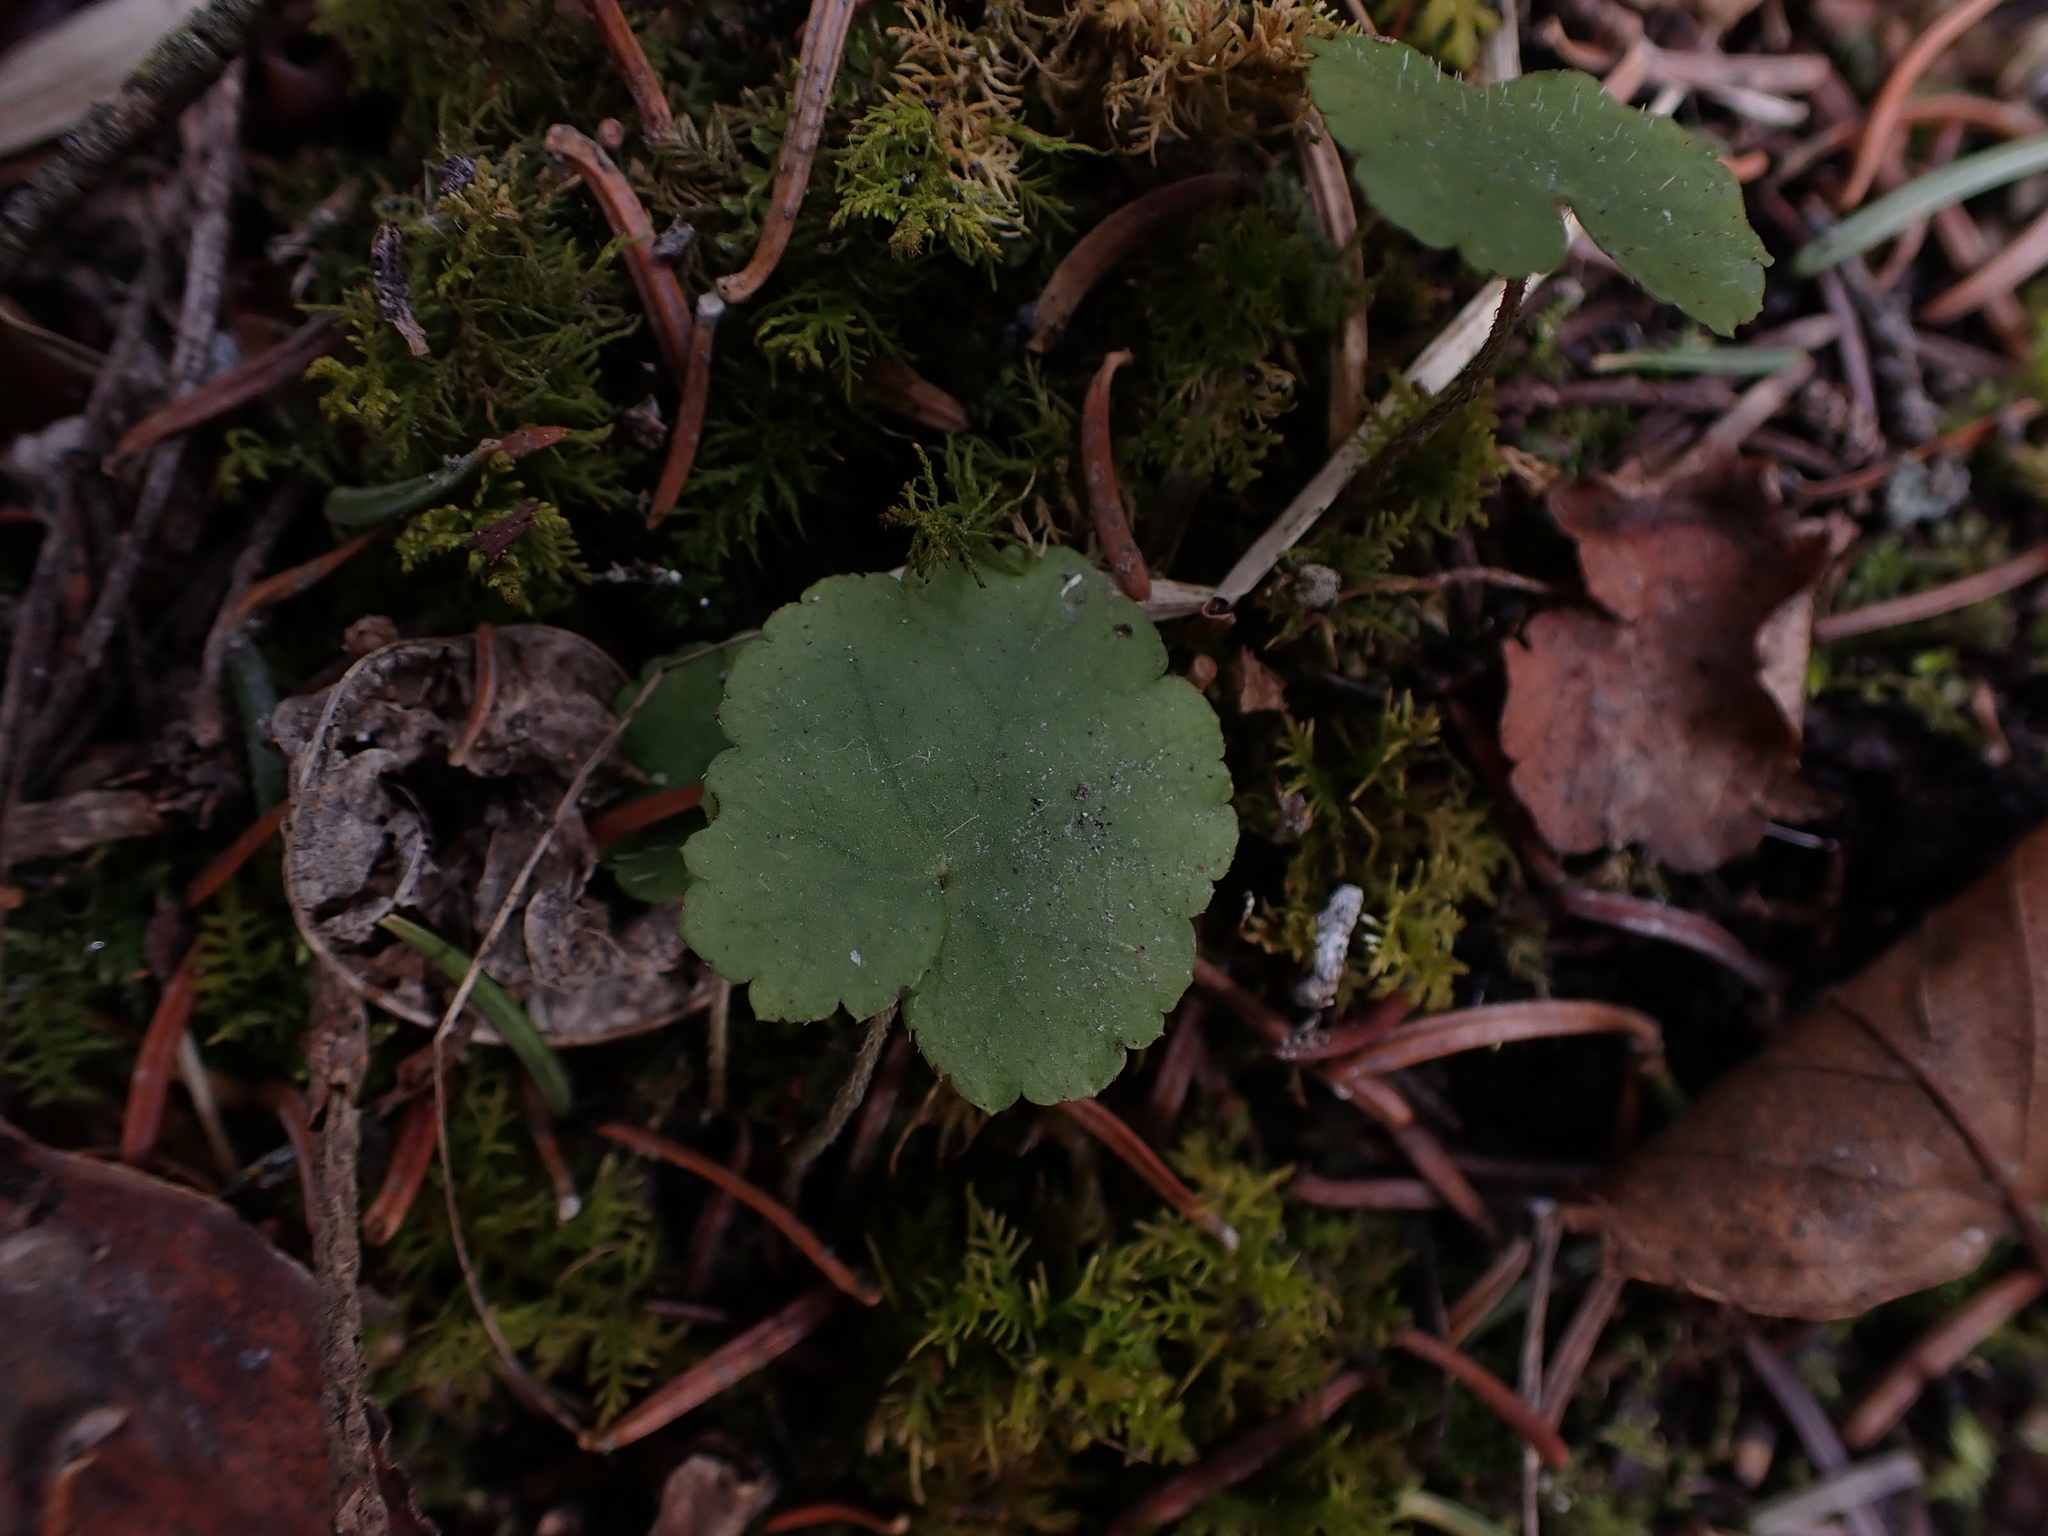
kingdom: Plantae
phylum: Tracheophyta
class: Magnoliopsida
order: Saxifragales
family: Saxifragaceae
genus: Mitella
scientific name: Mitella nuda
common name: Bare-stemmed bishop's-cap
